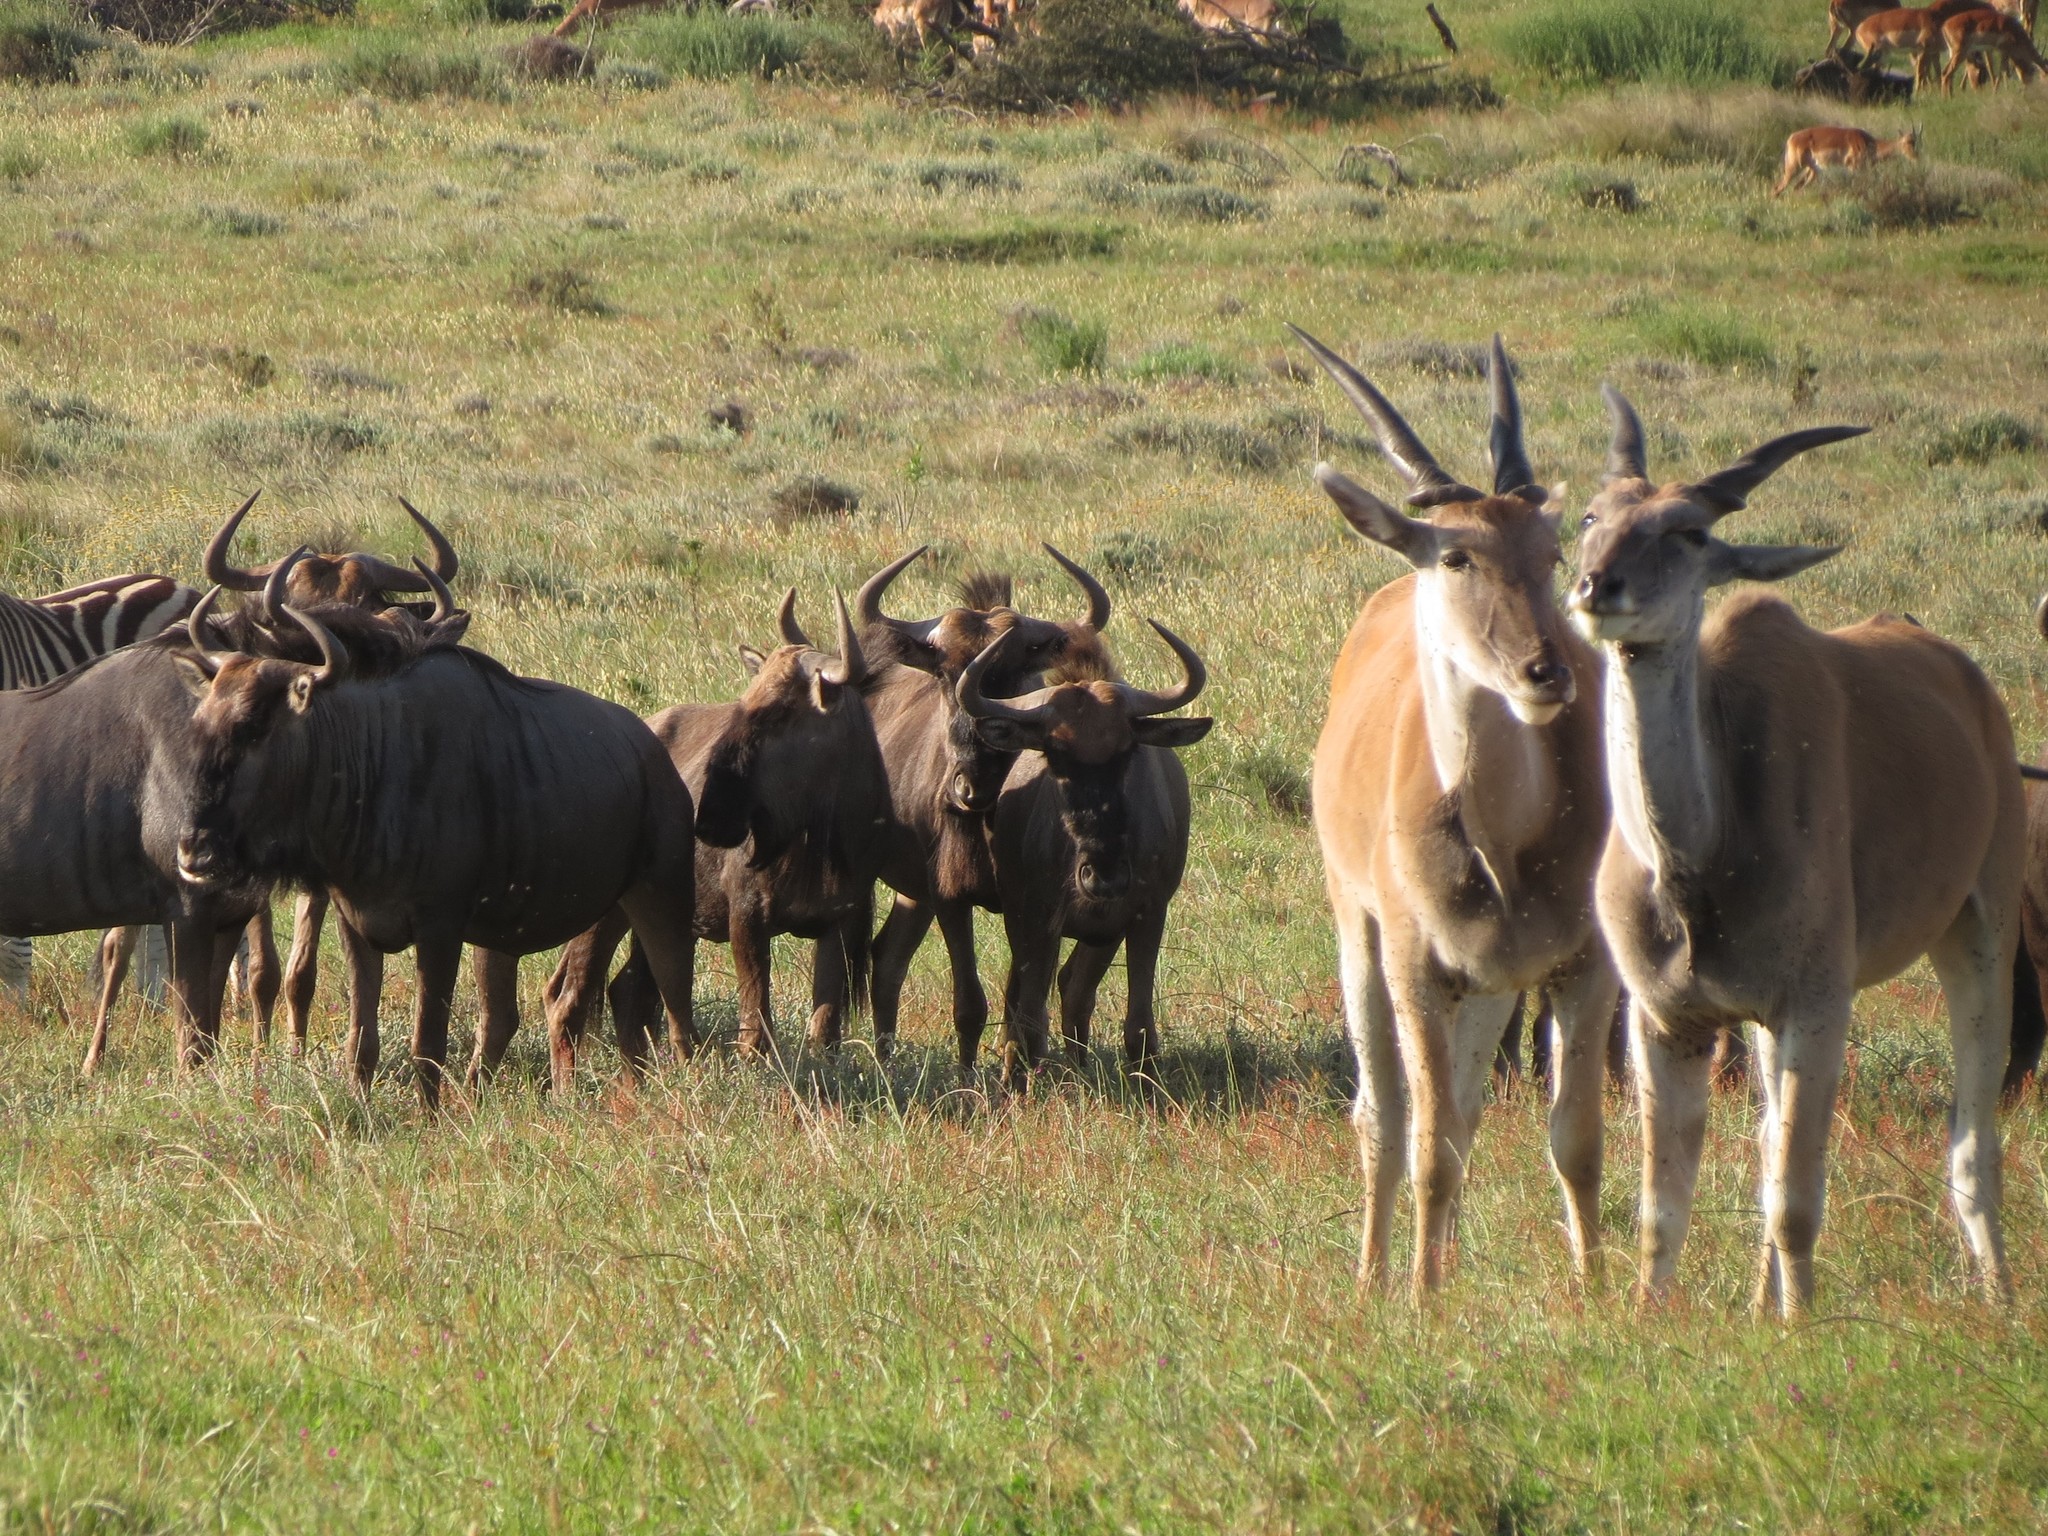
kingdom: Animalia
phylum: Chordata
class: Mammalia
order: Artiodactyla
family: Bovidae
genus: Taurotragus
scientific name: Taurotragus oryx
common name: Common eland
